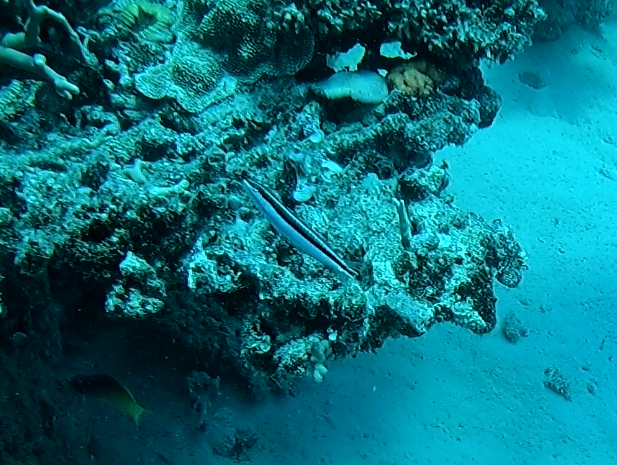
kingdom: Animalia
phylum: Chordata
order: Perciformes
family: Blenniidae
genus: Plagiotremus
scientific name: Plagiotremus tapeinosoma
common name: Hit and run blenny
